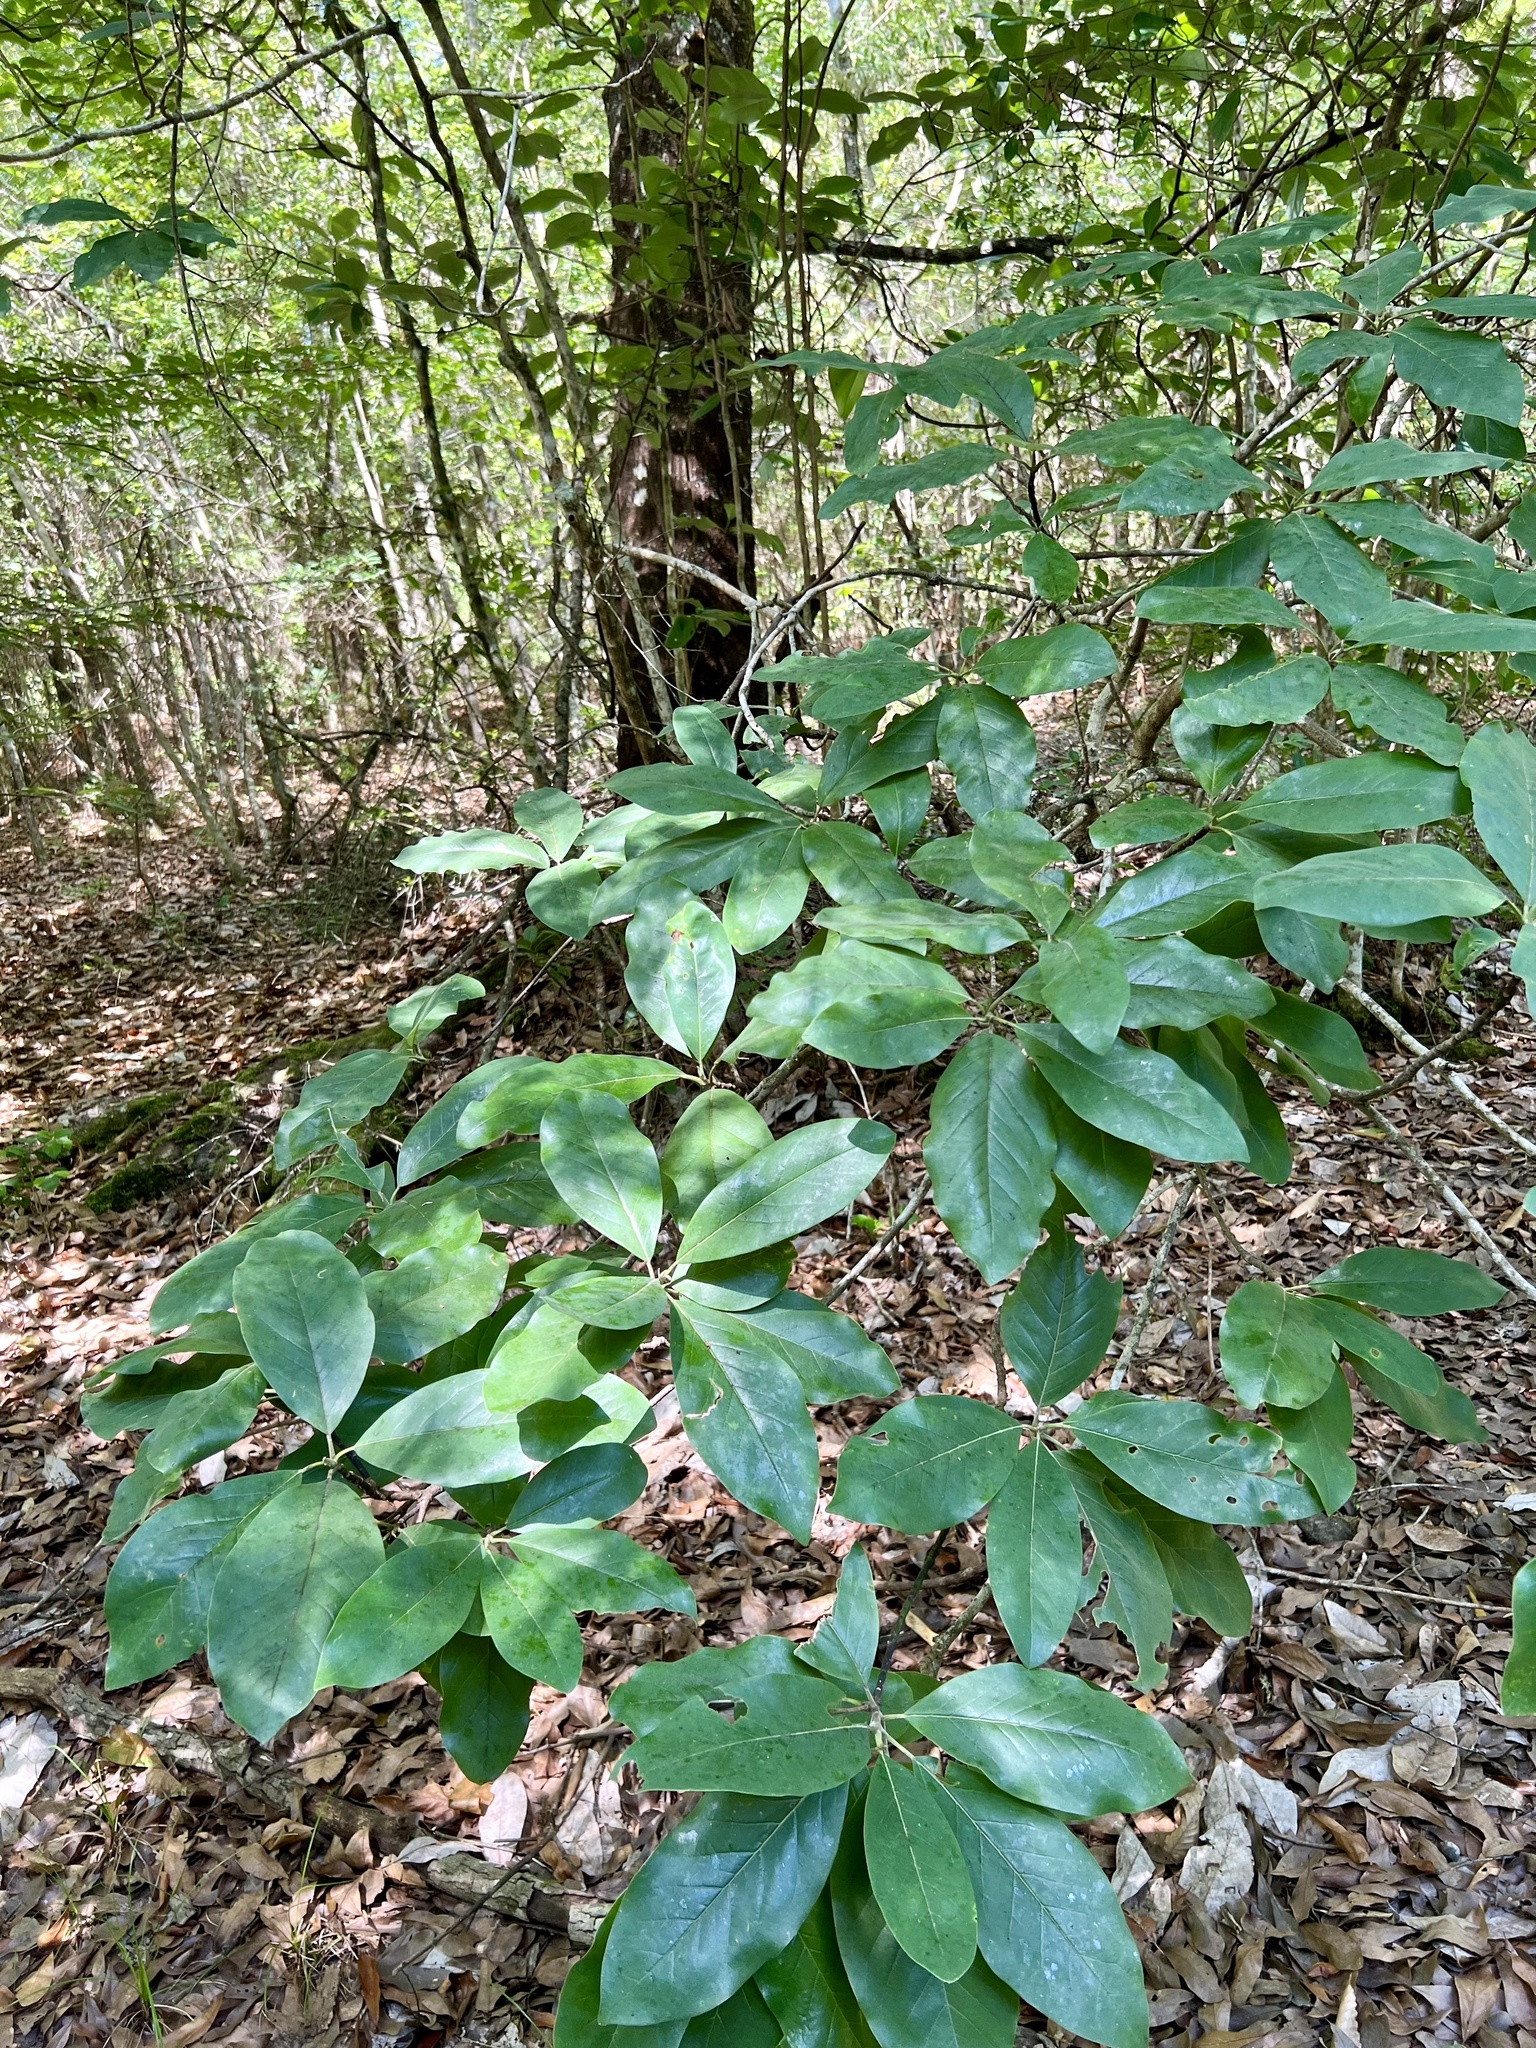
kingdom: Plantae
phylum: Tracheophyta
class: Magnoliopsida
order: Magnoliales
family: Magnoliaceae
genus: Magnolia
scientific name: Magnolia virginiana
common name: Swamp bay
